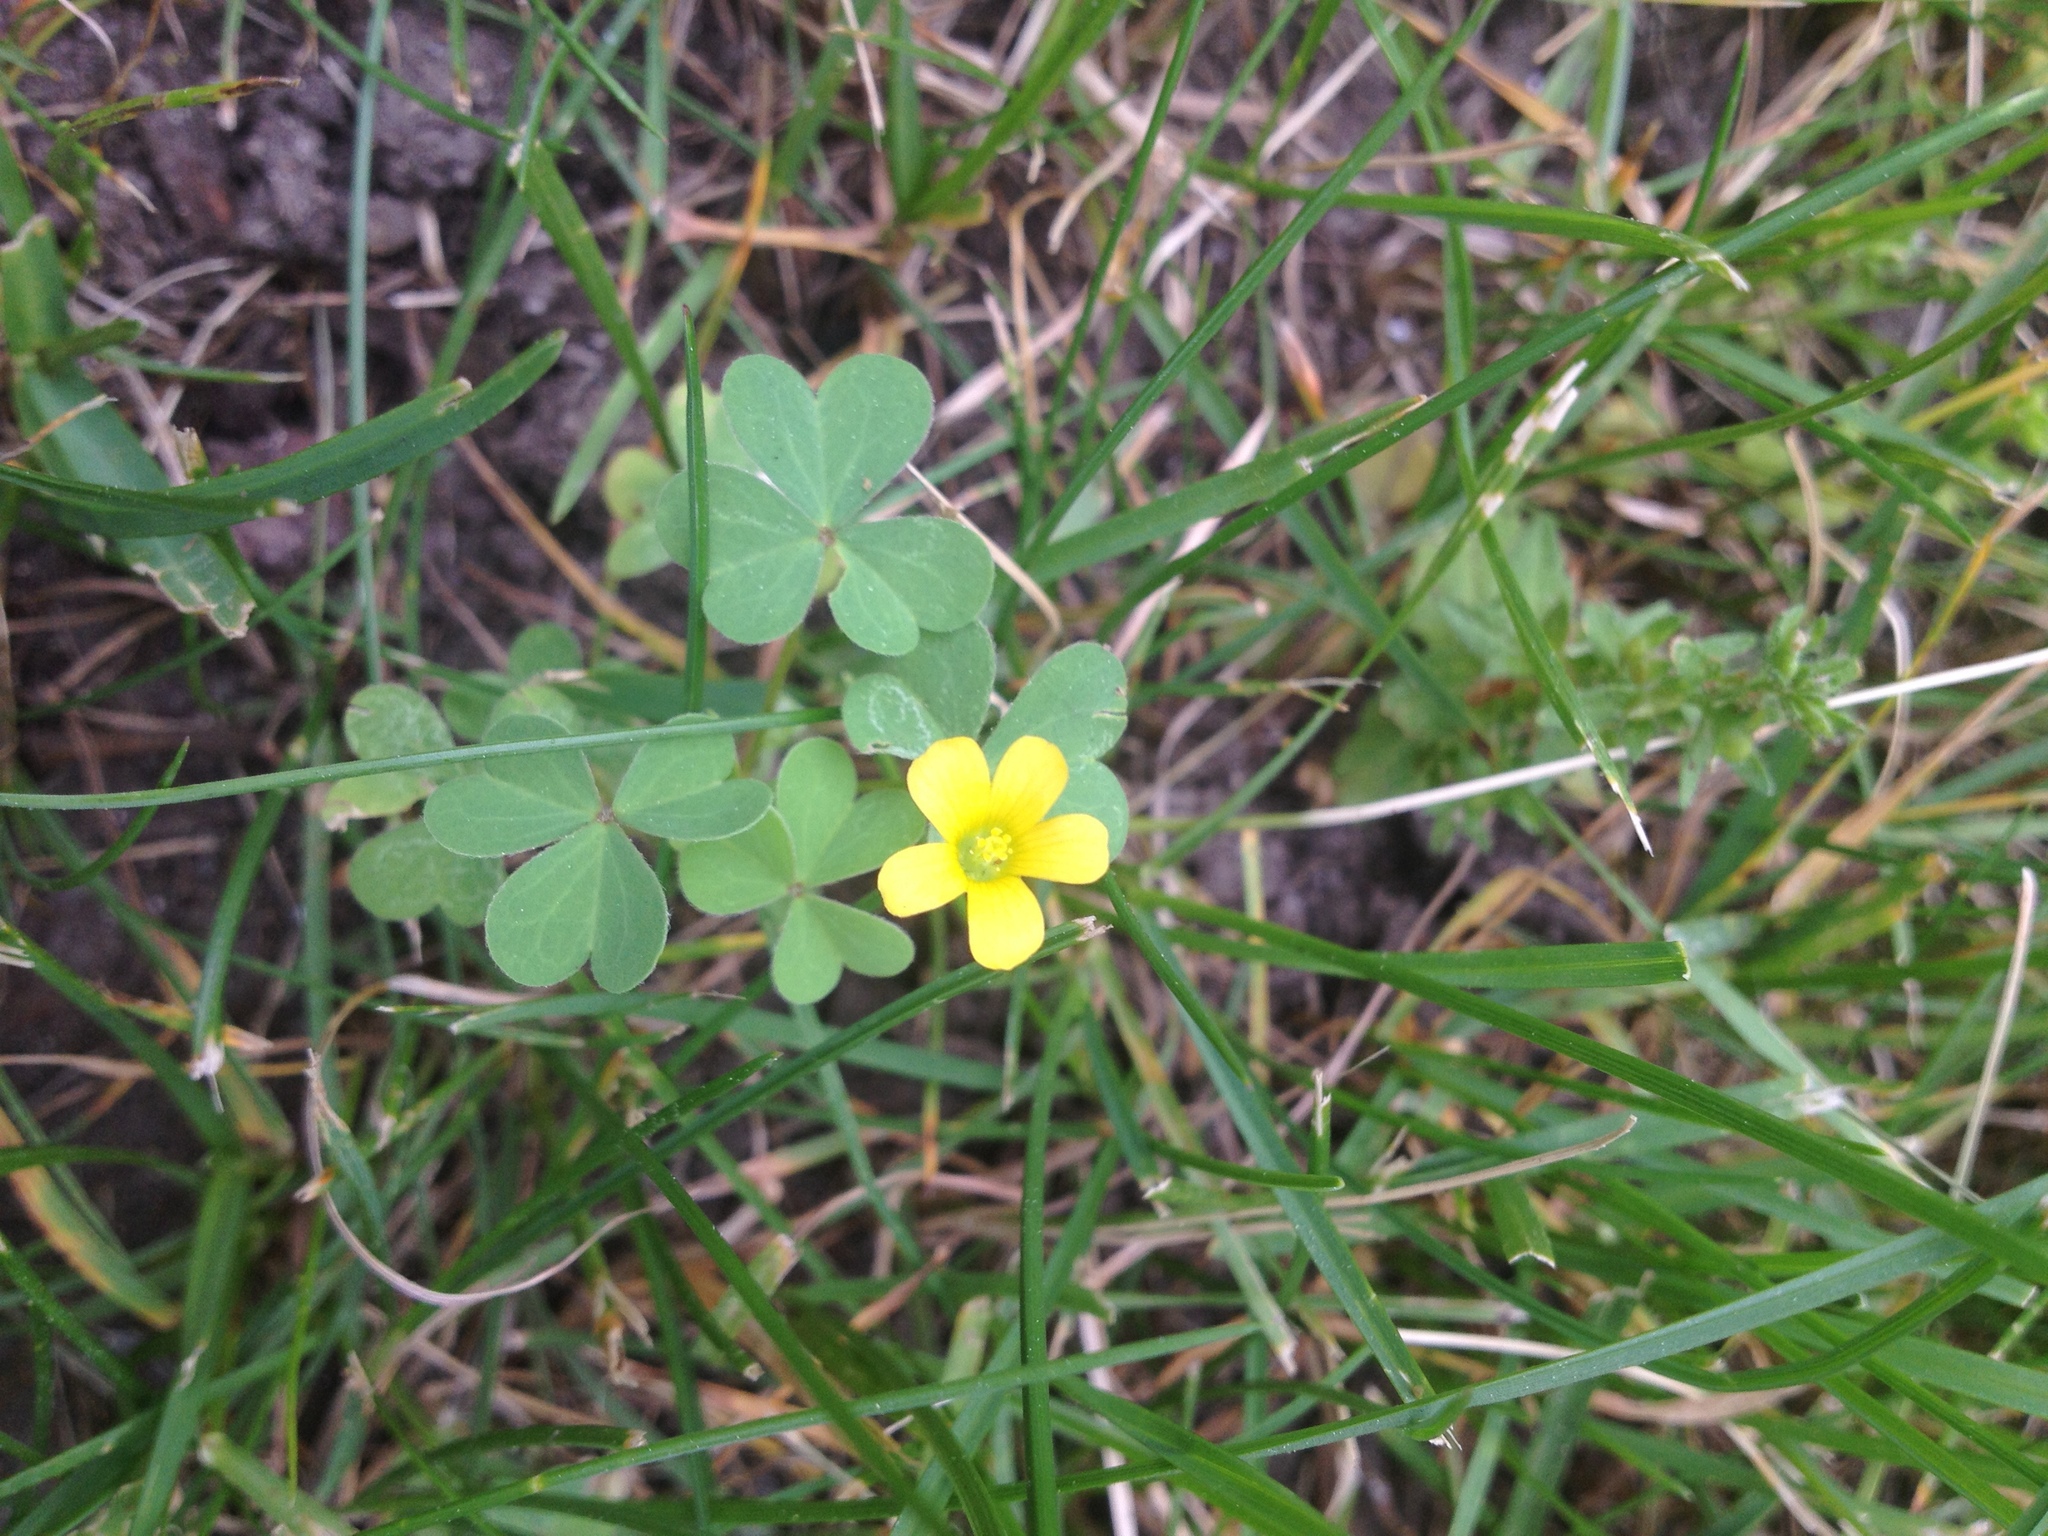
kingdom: Plantae
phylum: Tracheophyta
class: Magnoliopsida
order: Oxalidales
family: Oxalidaceae
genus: Oxalis
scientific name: Oxalis stricta
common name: Upright yellow-sorrel
